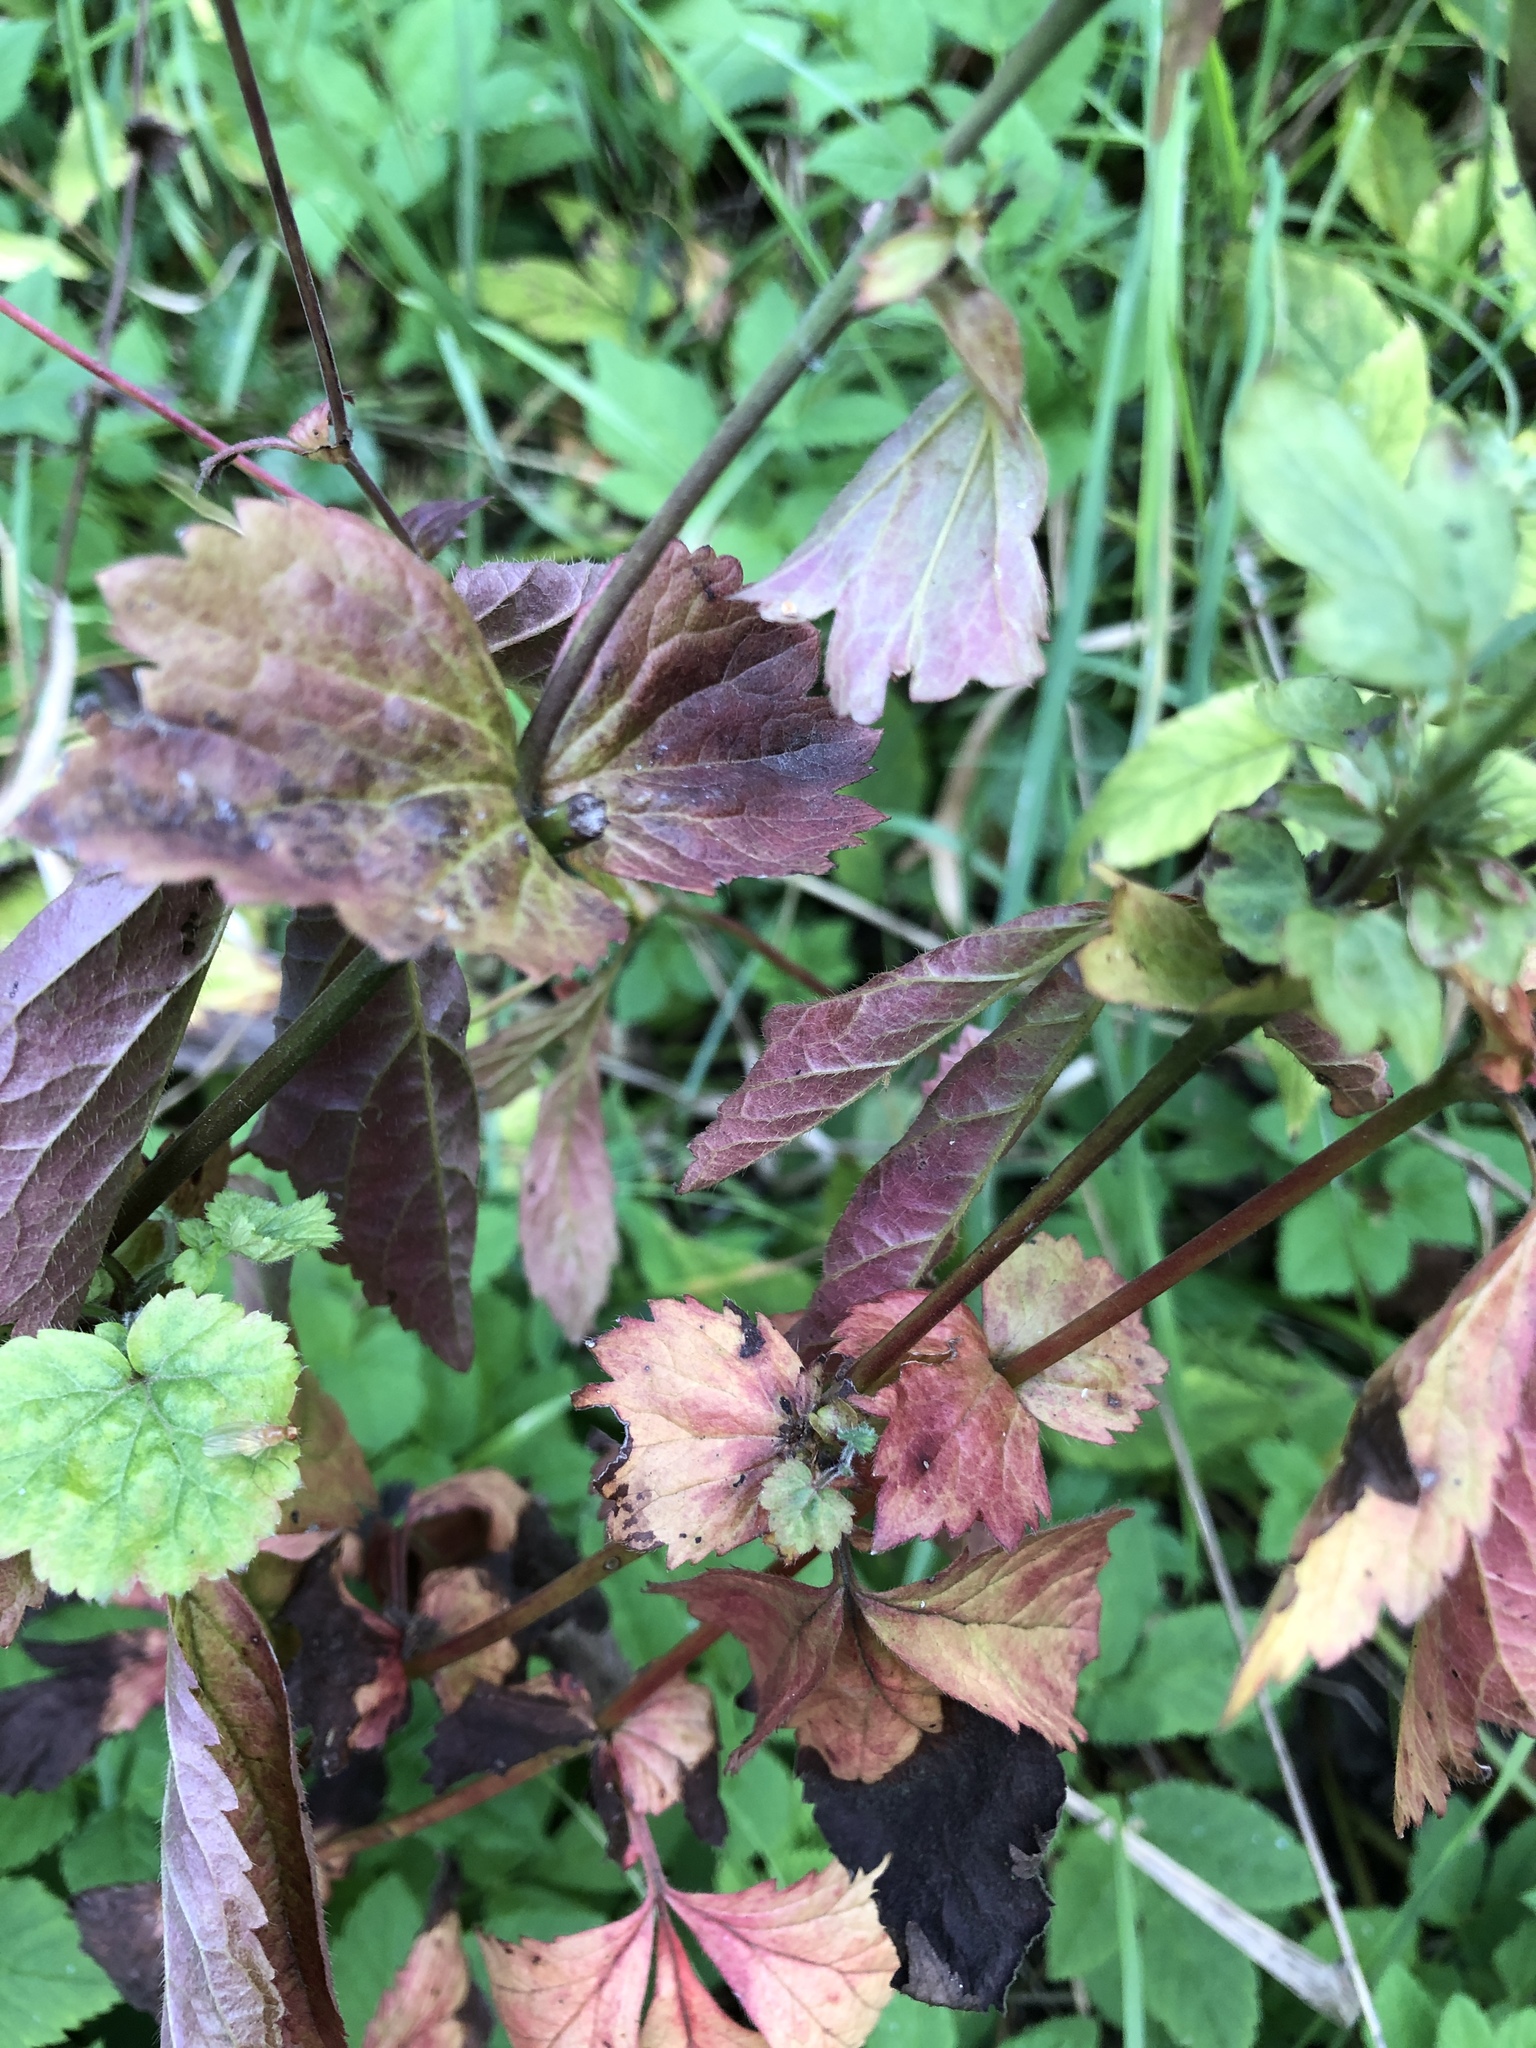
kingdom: Plantae
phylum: Tracheophyta
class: Magnoliopsida
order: Rosales
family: Rosaceae
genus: Geum
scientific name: Geum urbanum
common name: Wood avens
